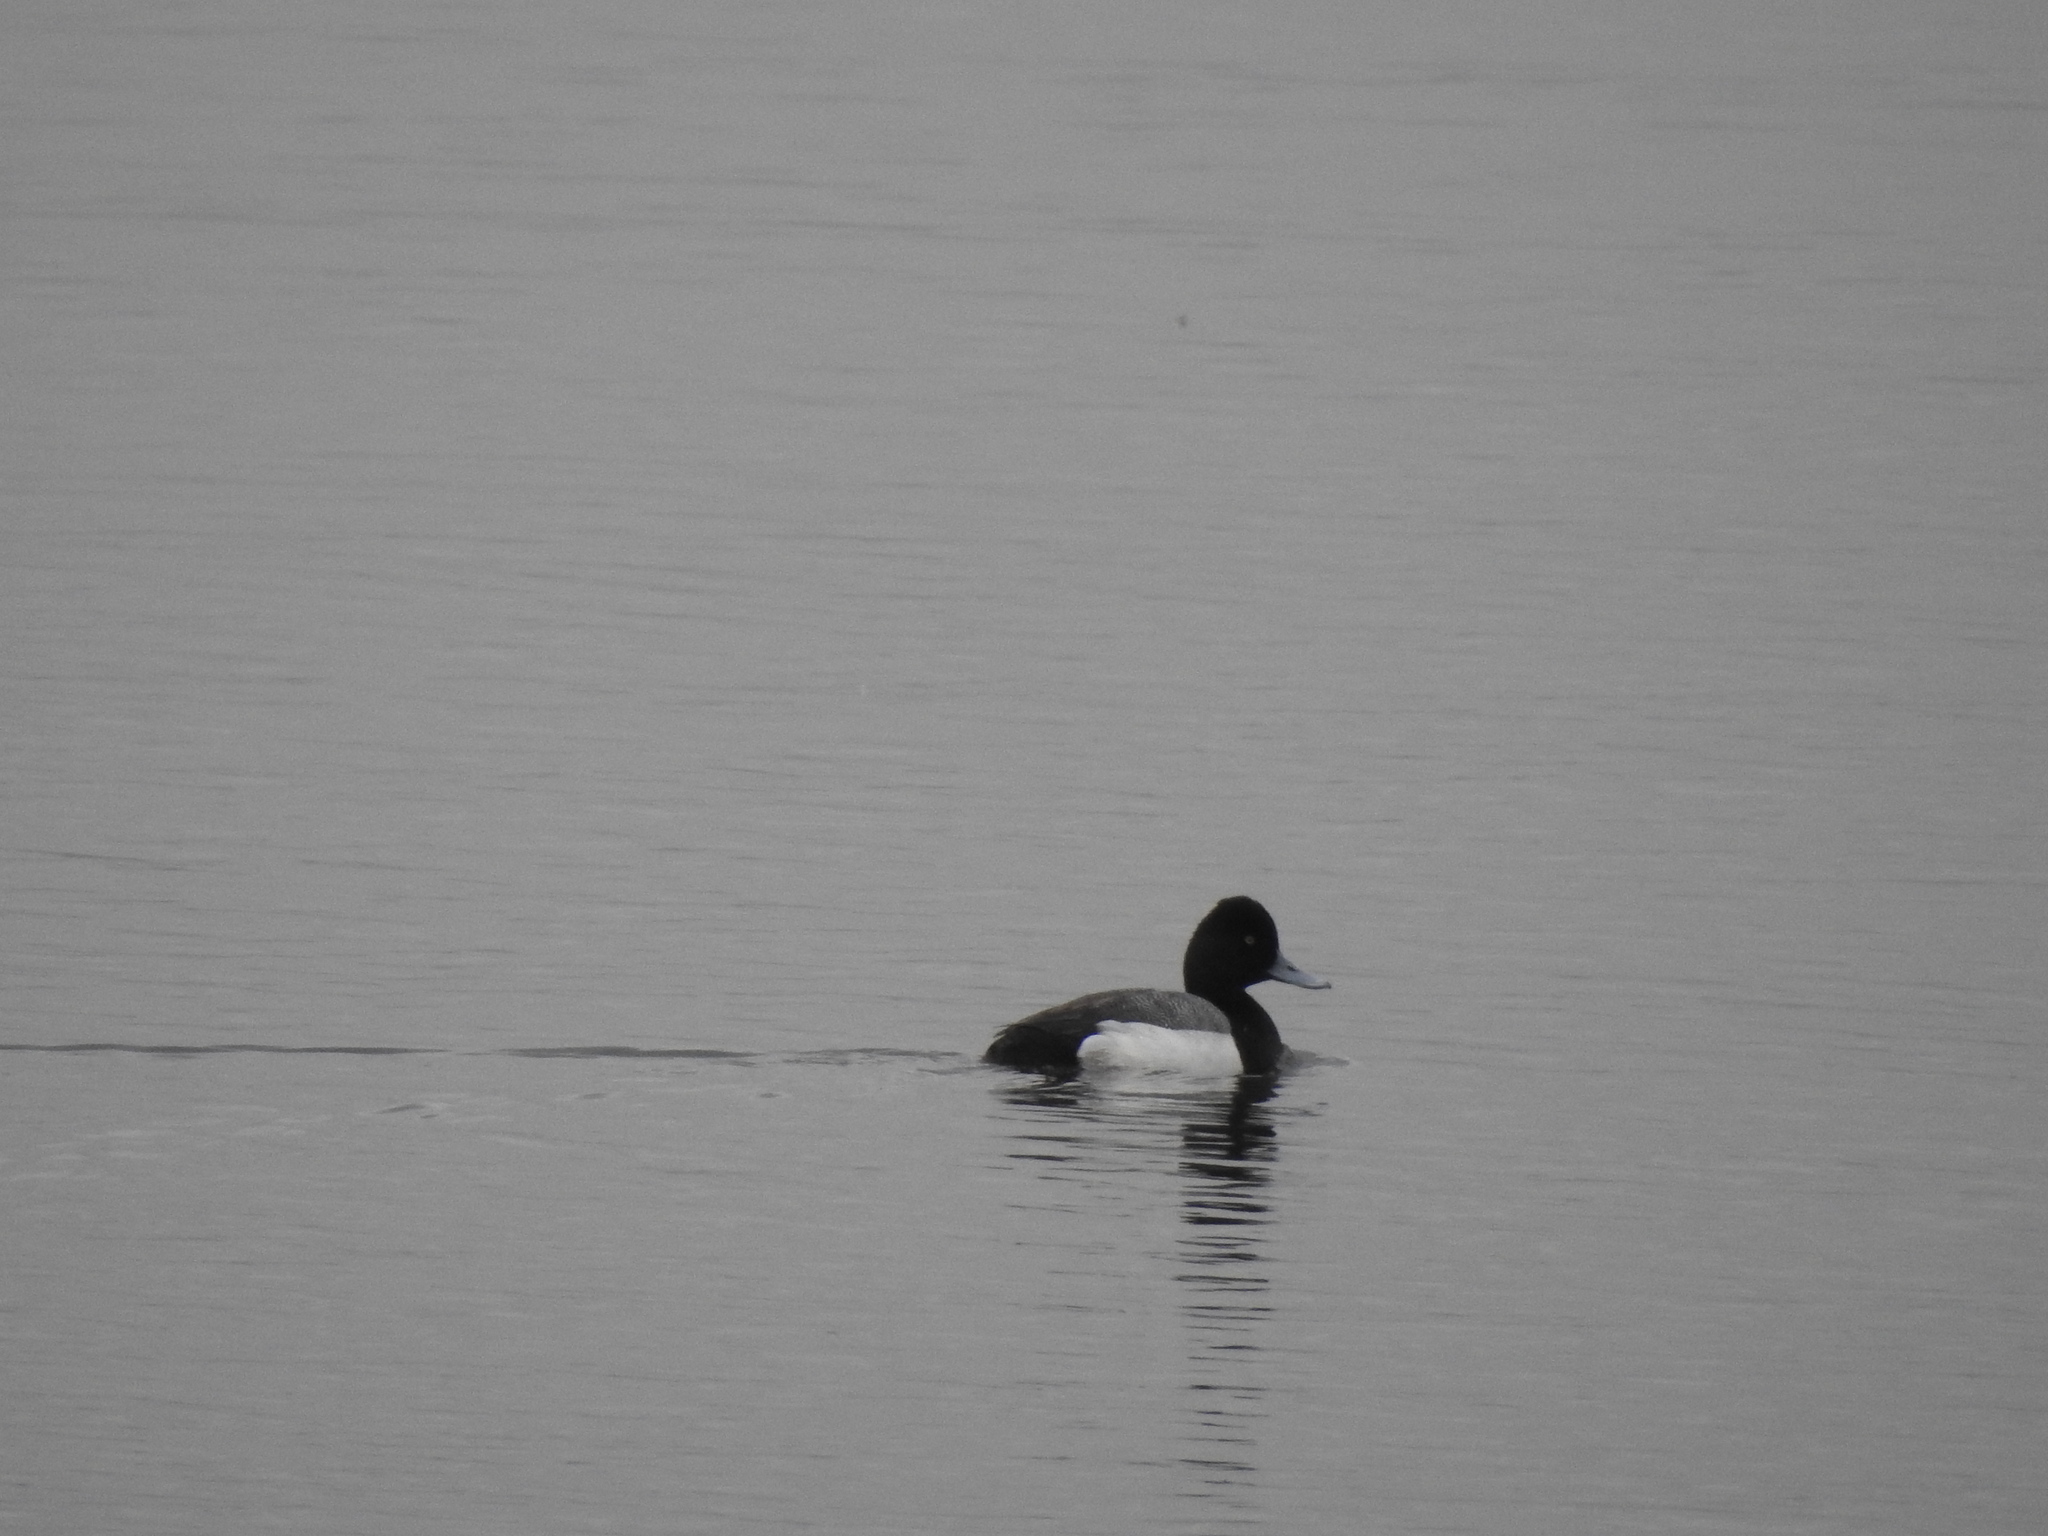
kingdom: Animalia
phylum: Chordata
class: Aves
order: Anseriformes
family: Anatidae
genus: Aythya
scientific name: Aythya affinis
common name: Lesser scaup
